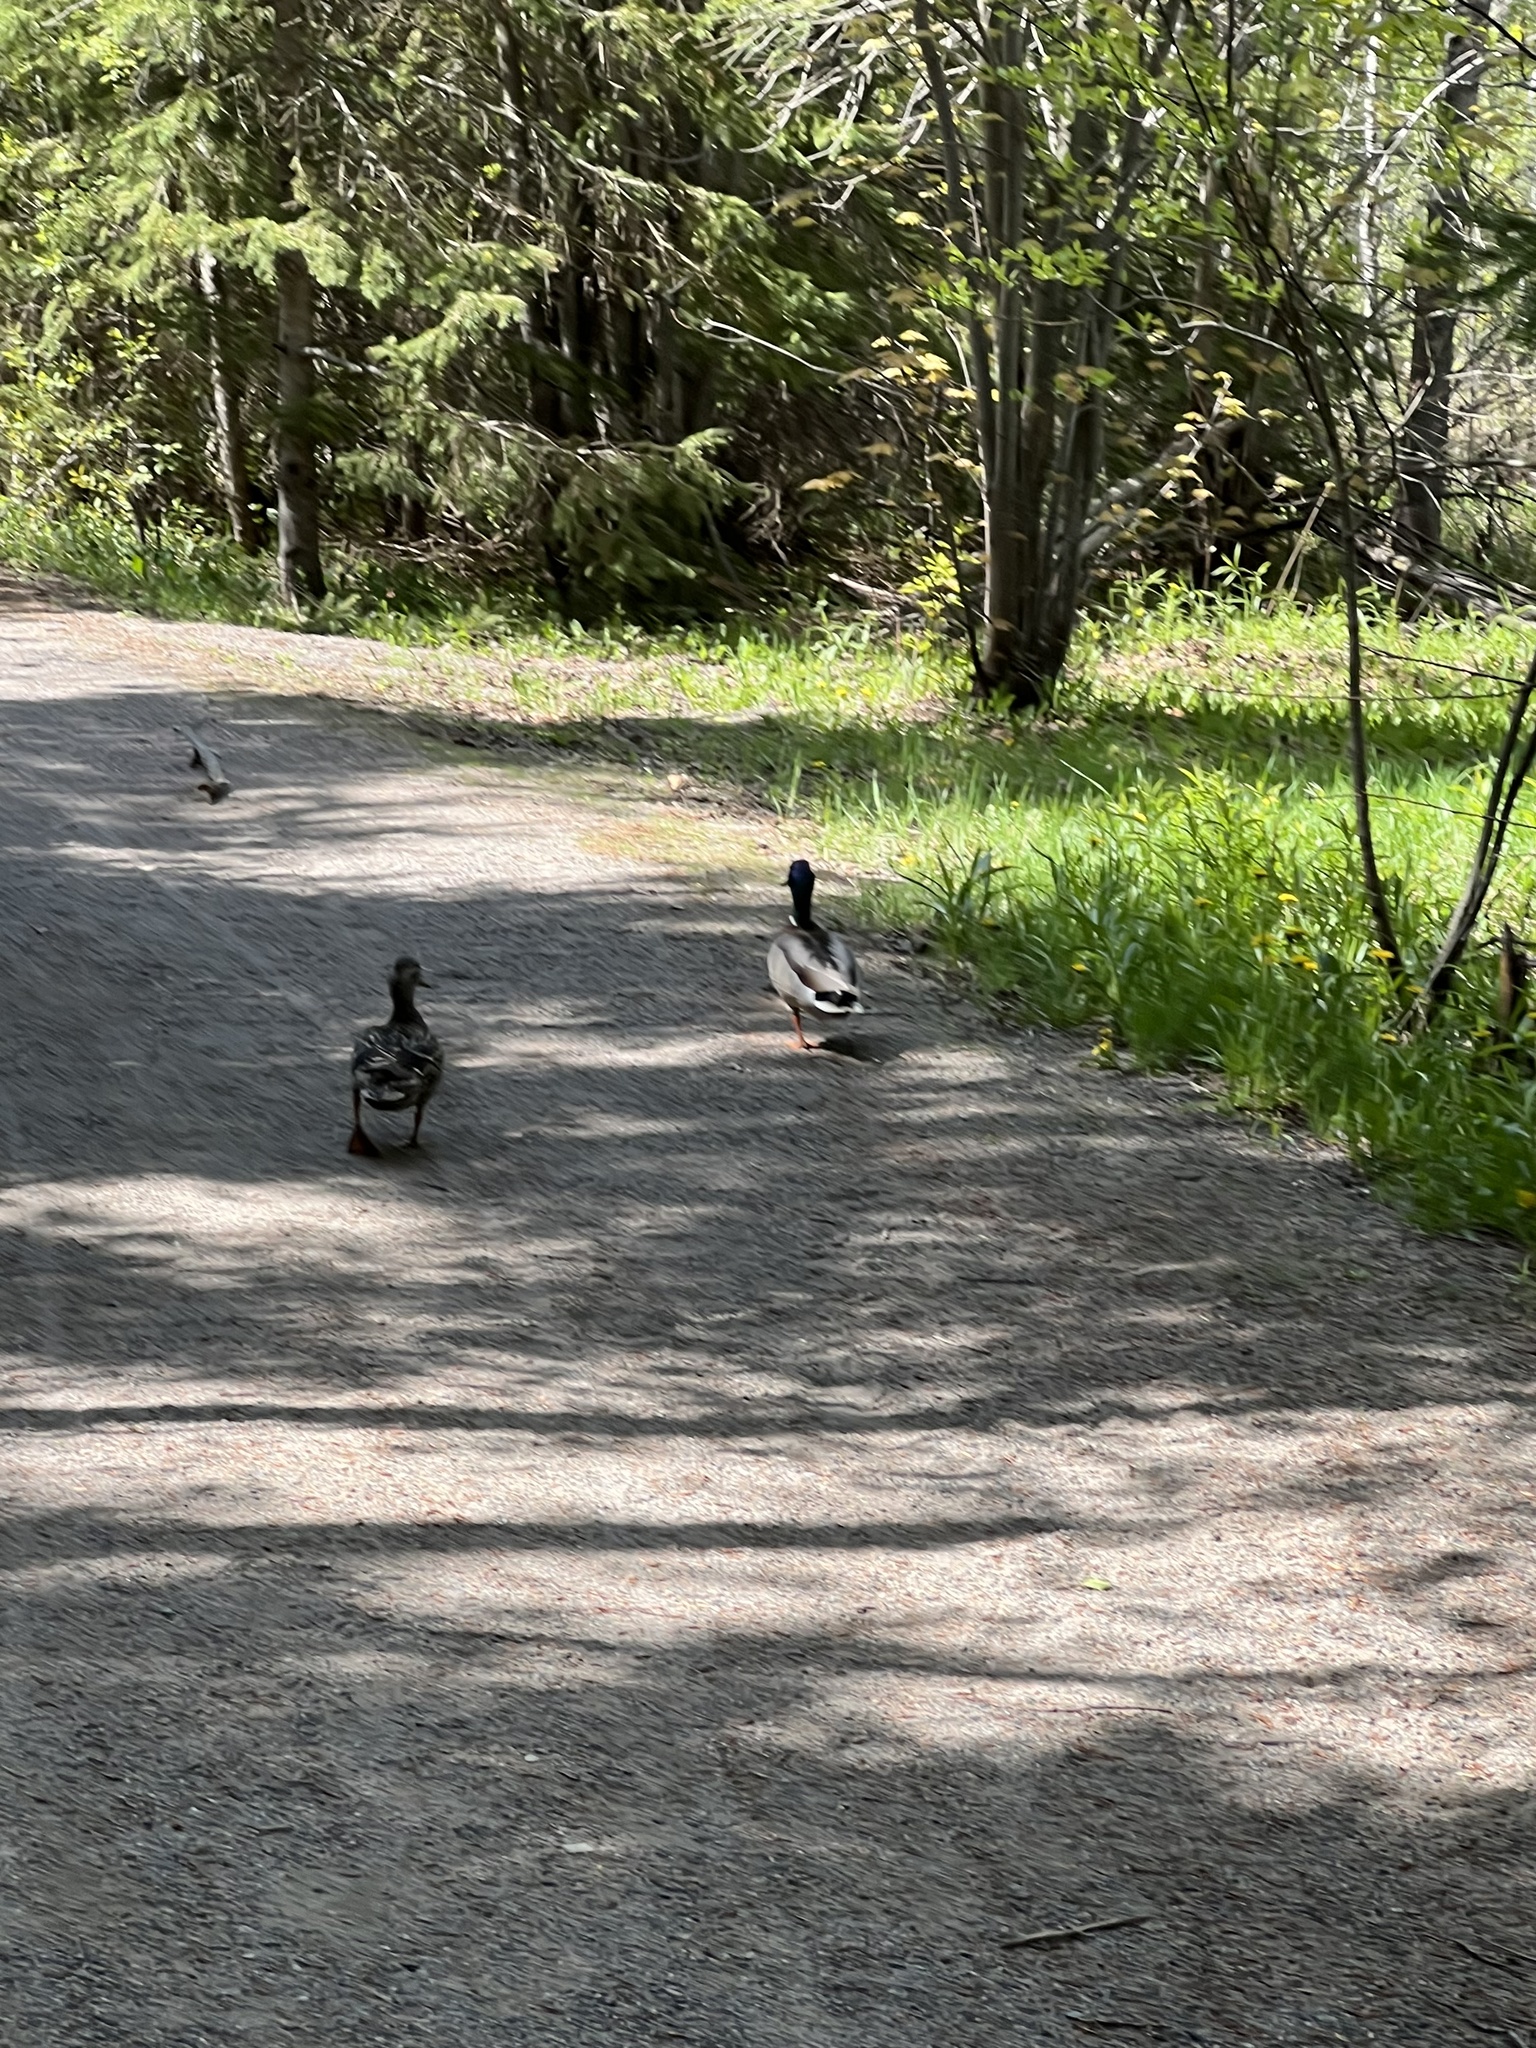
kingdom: Animalia
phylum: Chordata
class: Aves
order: Anseriformes
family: Anatidae
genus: Anas
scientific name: Anas platyrhynchos
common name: Mallard
